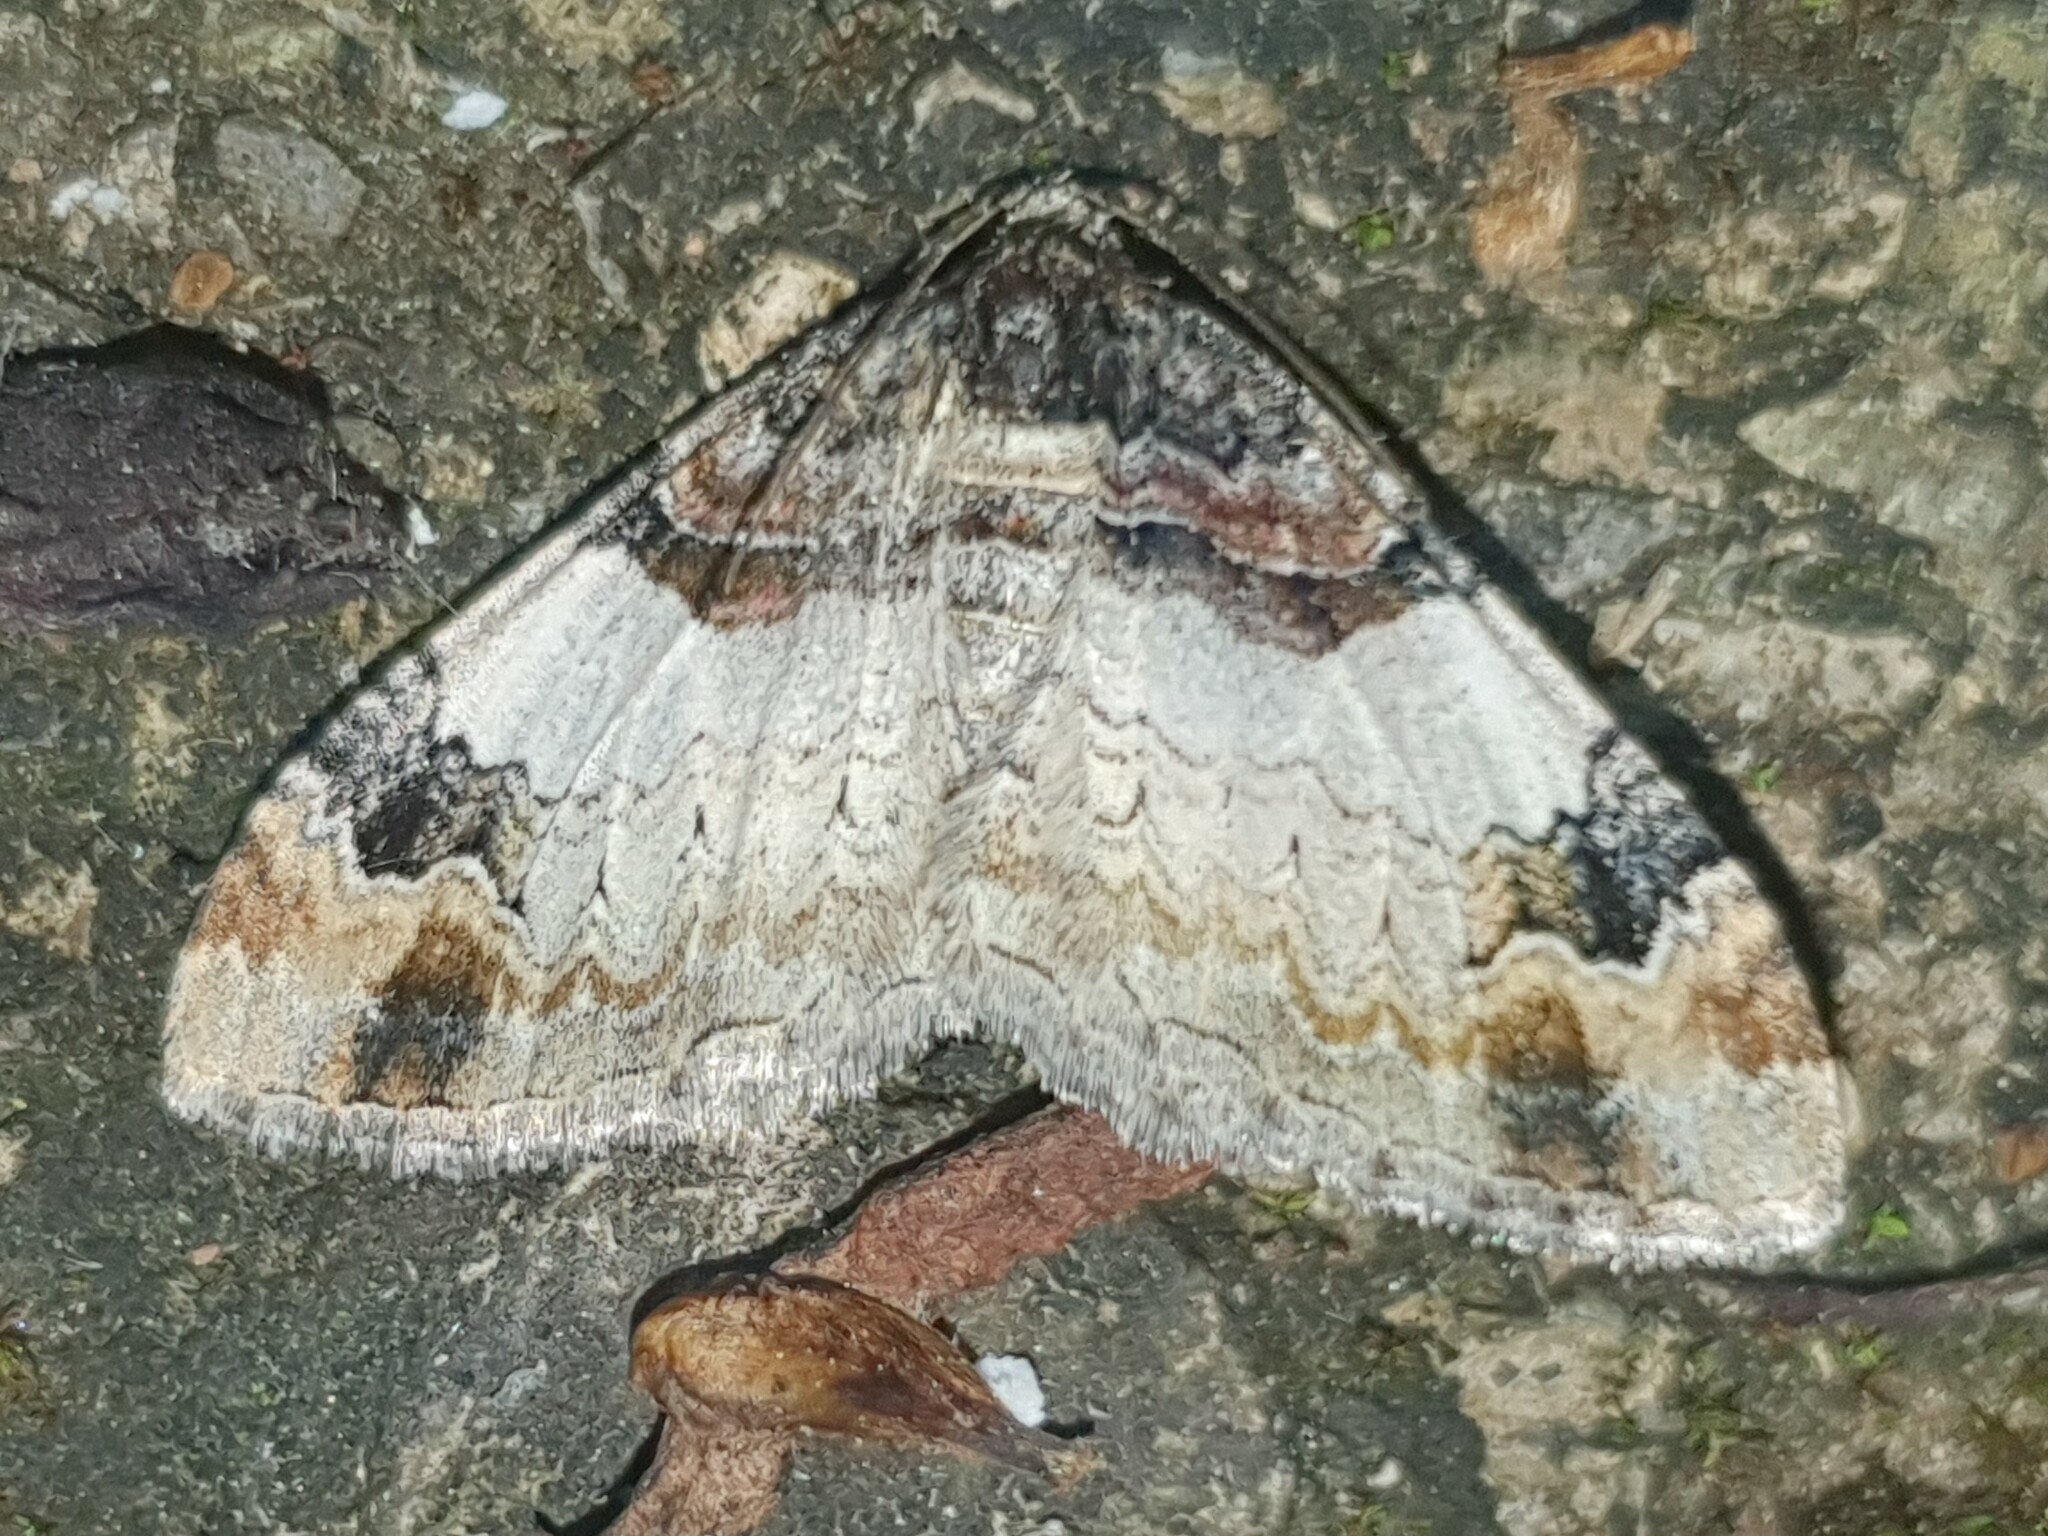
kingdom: Animalia
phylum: Arthropoda
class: Insecta
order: Lepidoptera
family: Geometridae
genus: Catarhoe
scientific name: Catarhoe cuculata
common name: Royal mantle
